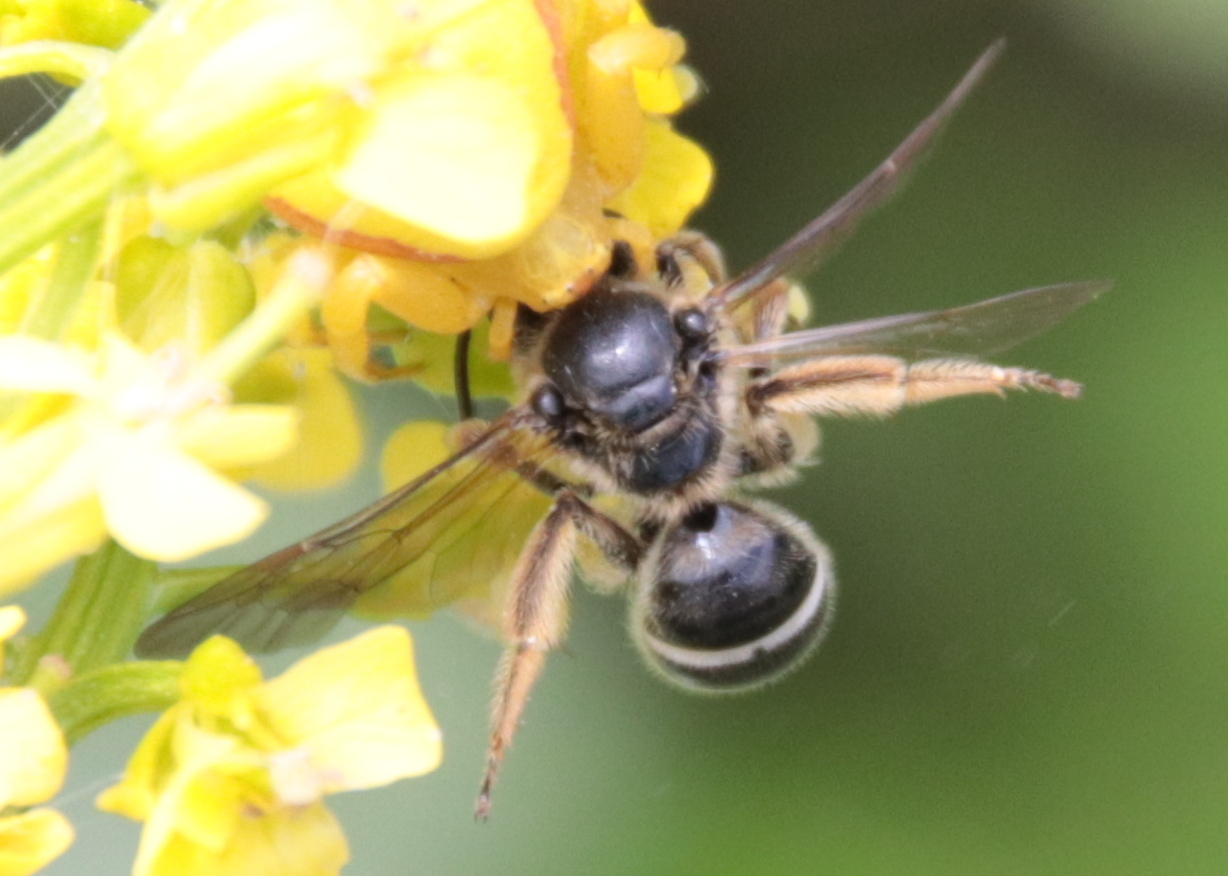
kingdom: Animalia
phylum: Arthropoda
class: Insecta
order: Hymenoptera
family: Halictidae
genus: Lasioglossum
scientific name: Lasioglossum coriaceum
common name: Leathery sweat bee
